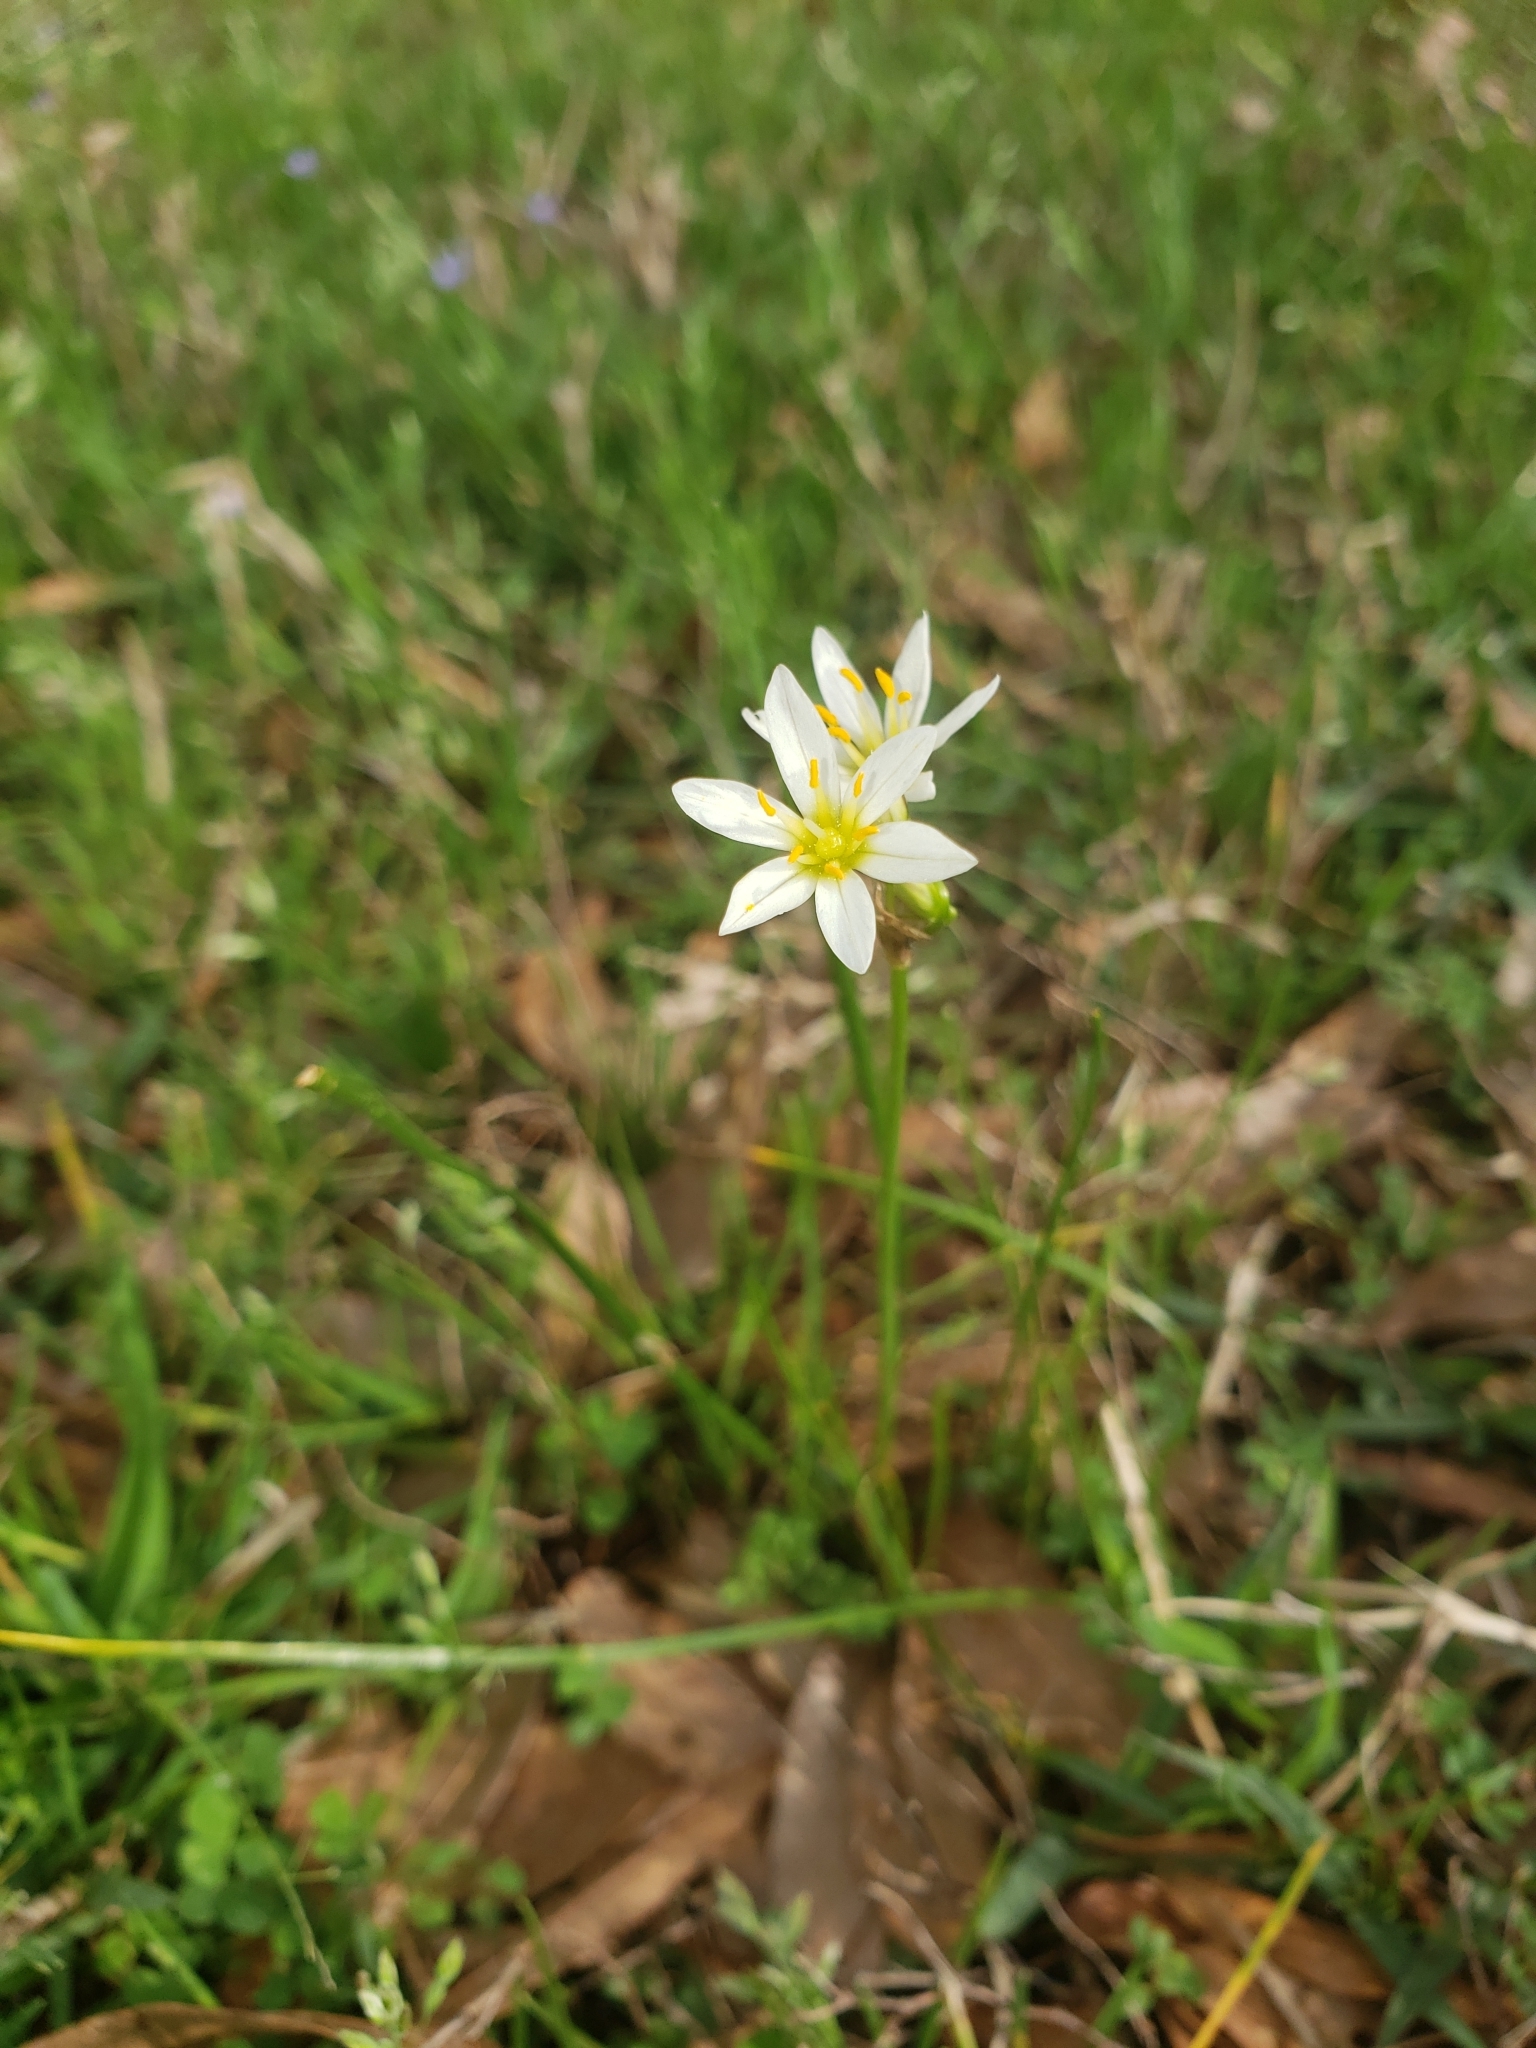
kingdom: Plantae
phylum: Tracheophyta
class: Liliopsida
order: Asparagales
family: Amaryllidaceae
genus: Nothoscordum
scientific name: Nothoscordum bivalve
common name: Crow-poison
